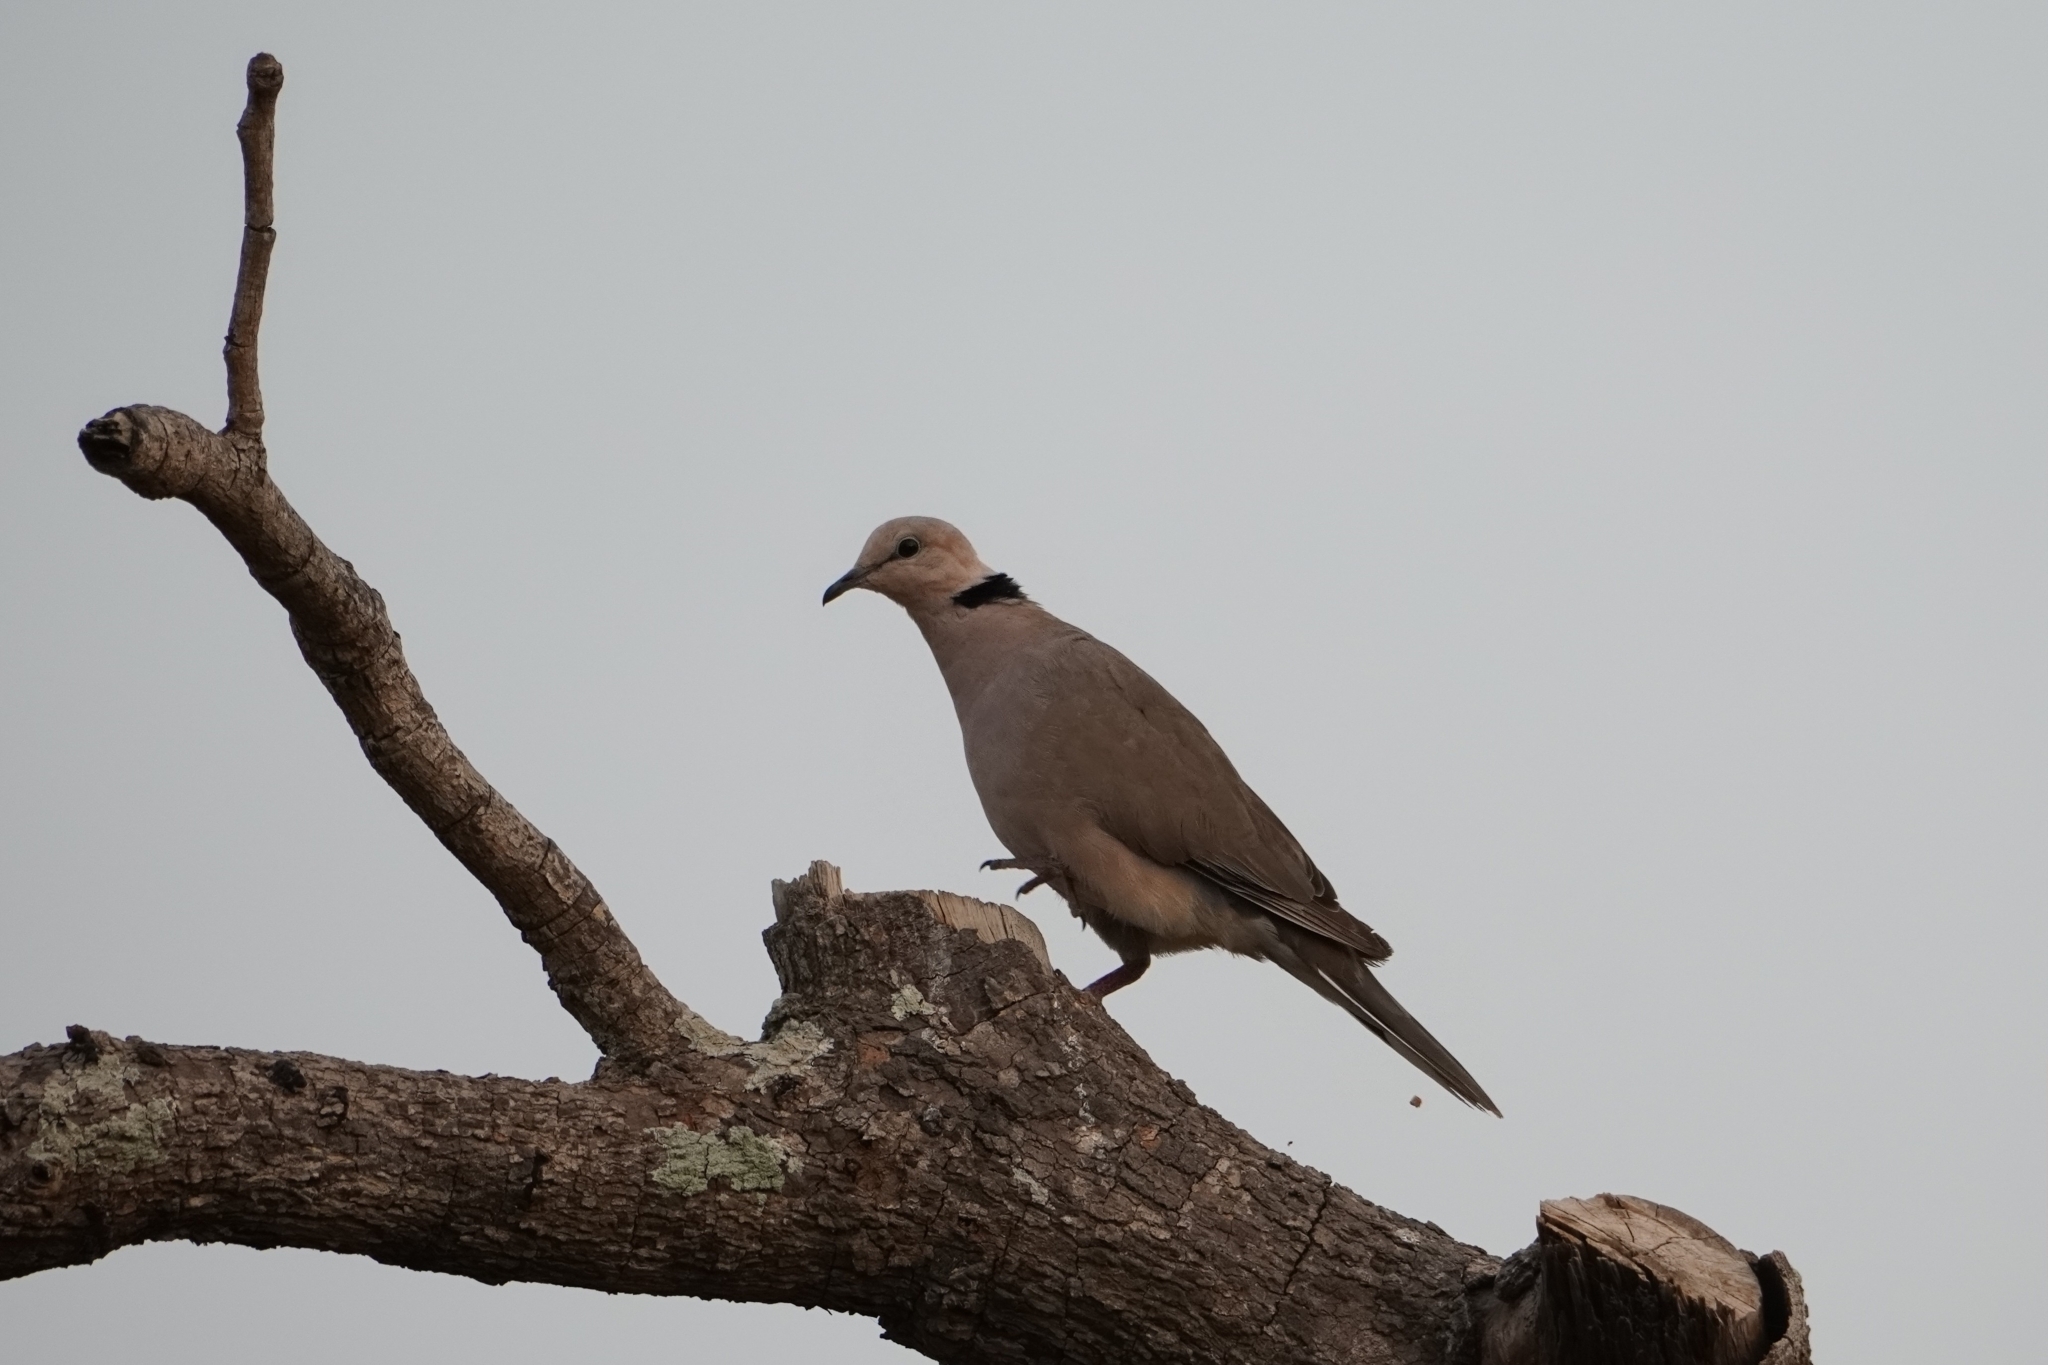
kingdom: Animalia
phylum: Chordata
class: Aves
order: Columbiformes
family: Columbidae
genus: Streptopelia
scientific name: Streptopelia vinacea
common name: Vinaceous dove
